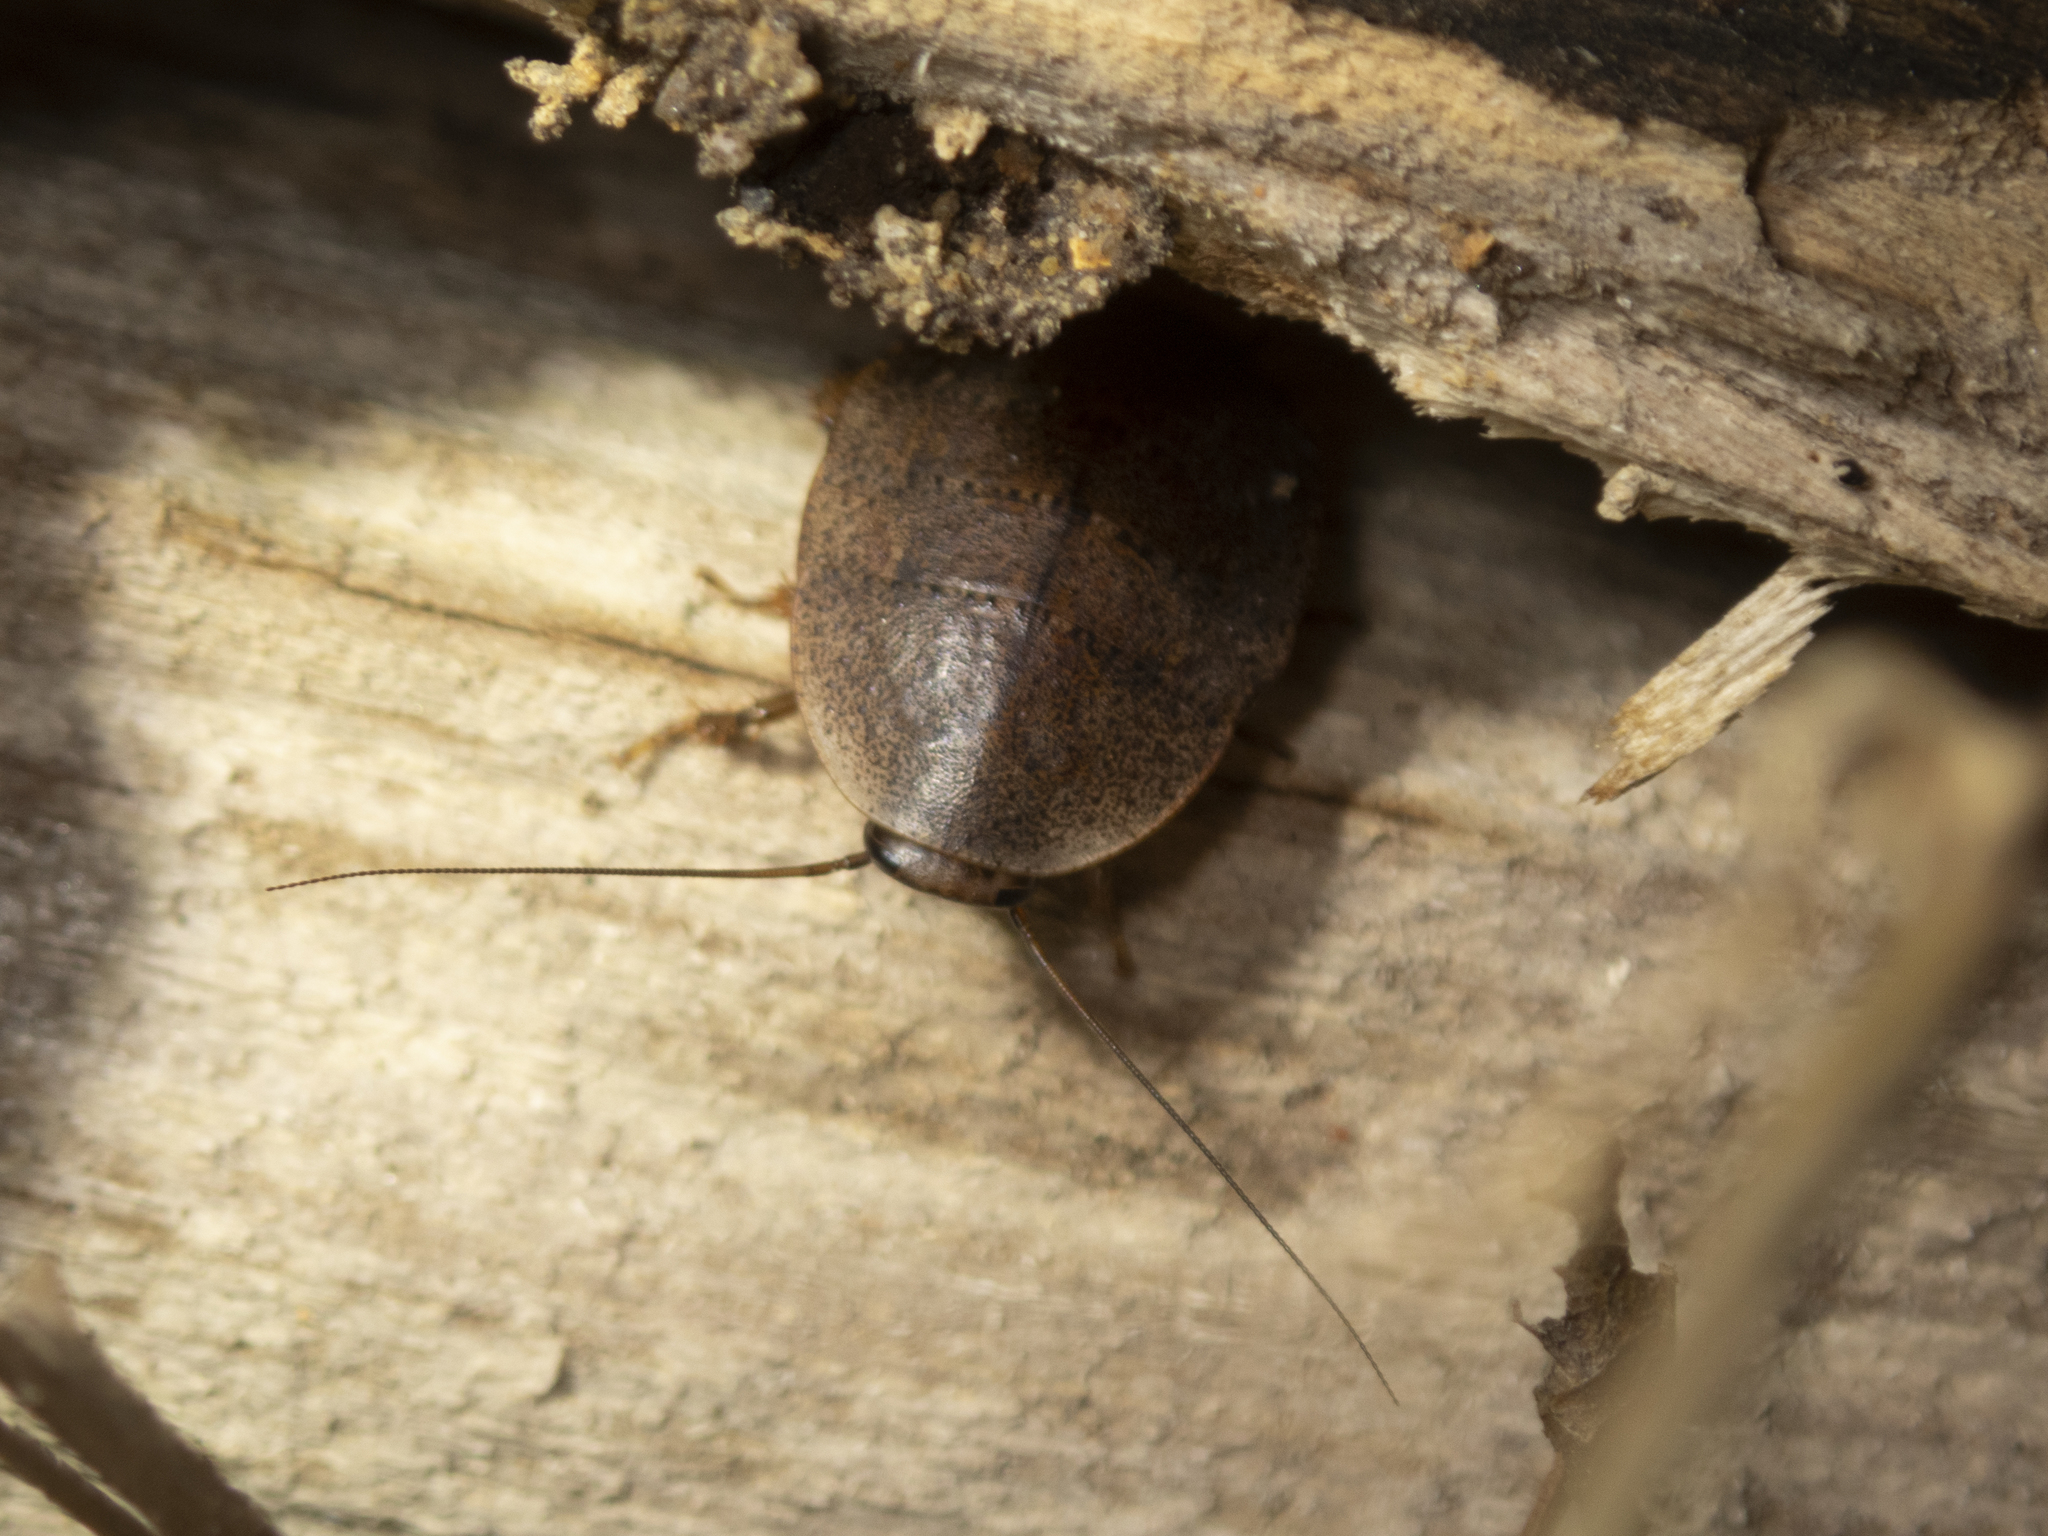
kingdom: Animalia
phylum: Arthropoda
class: Insecta
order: Blattodea
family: Blaberidae
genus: Opisthoplatia
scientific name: Opisthoplatia orientalis
